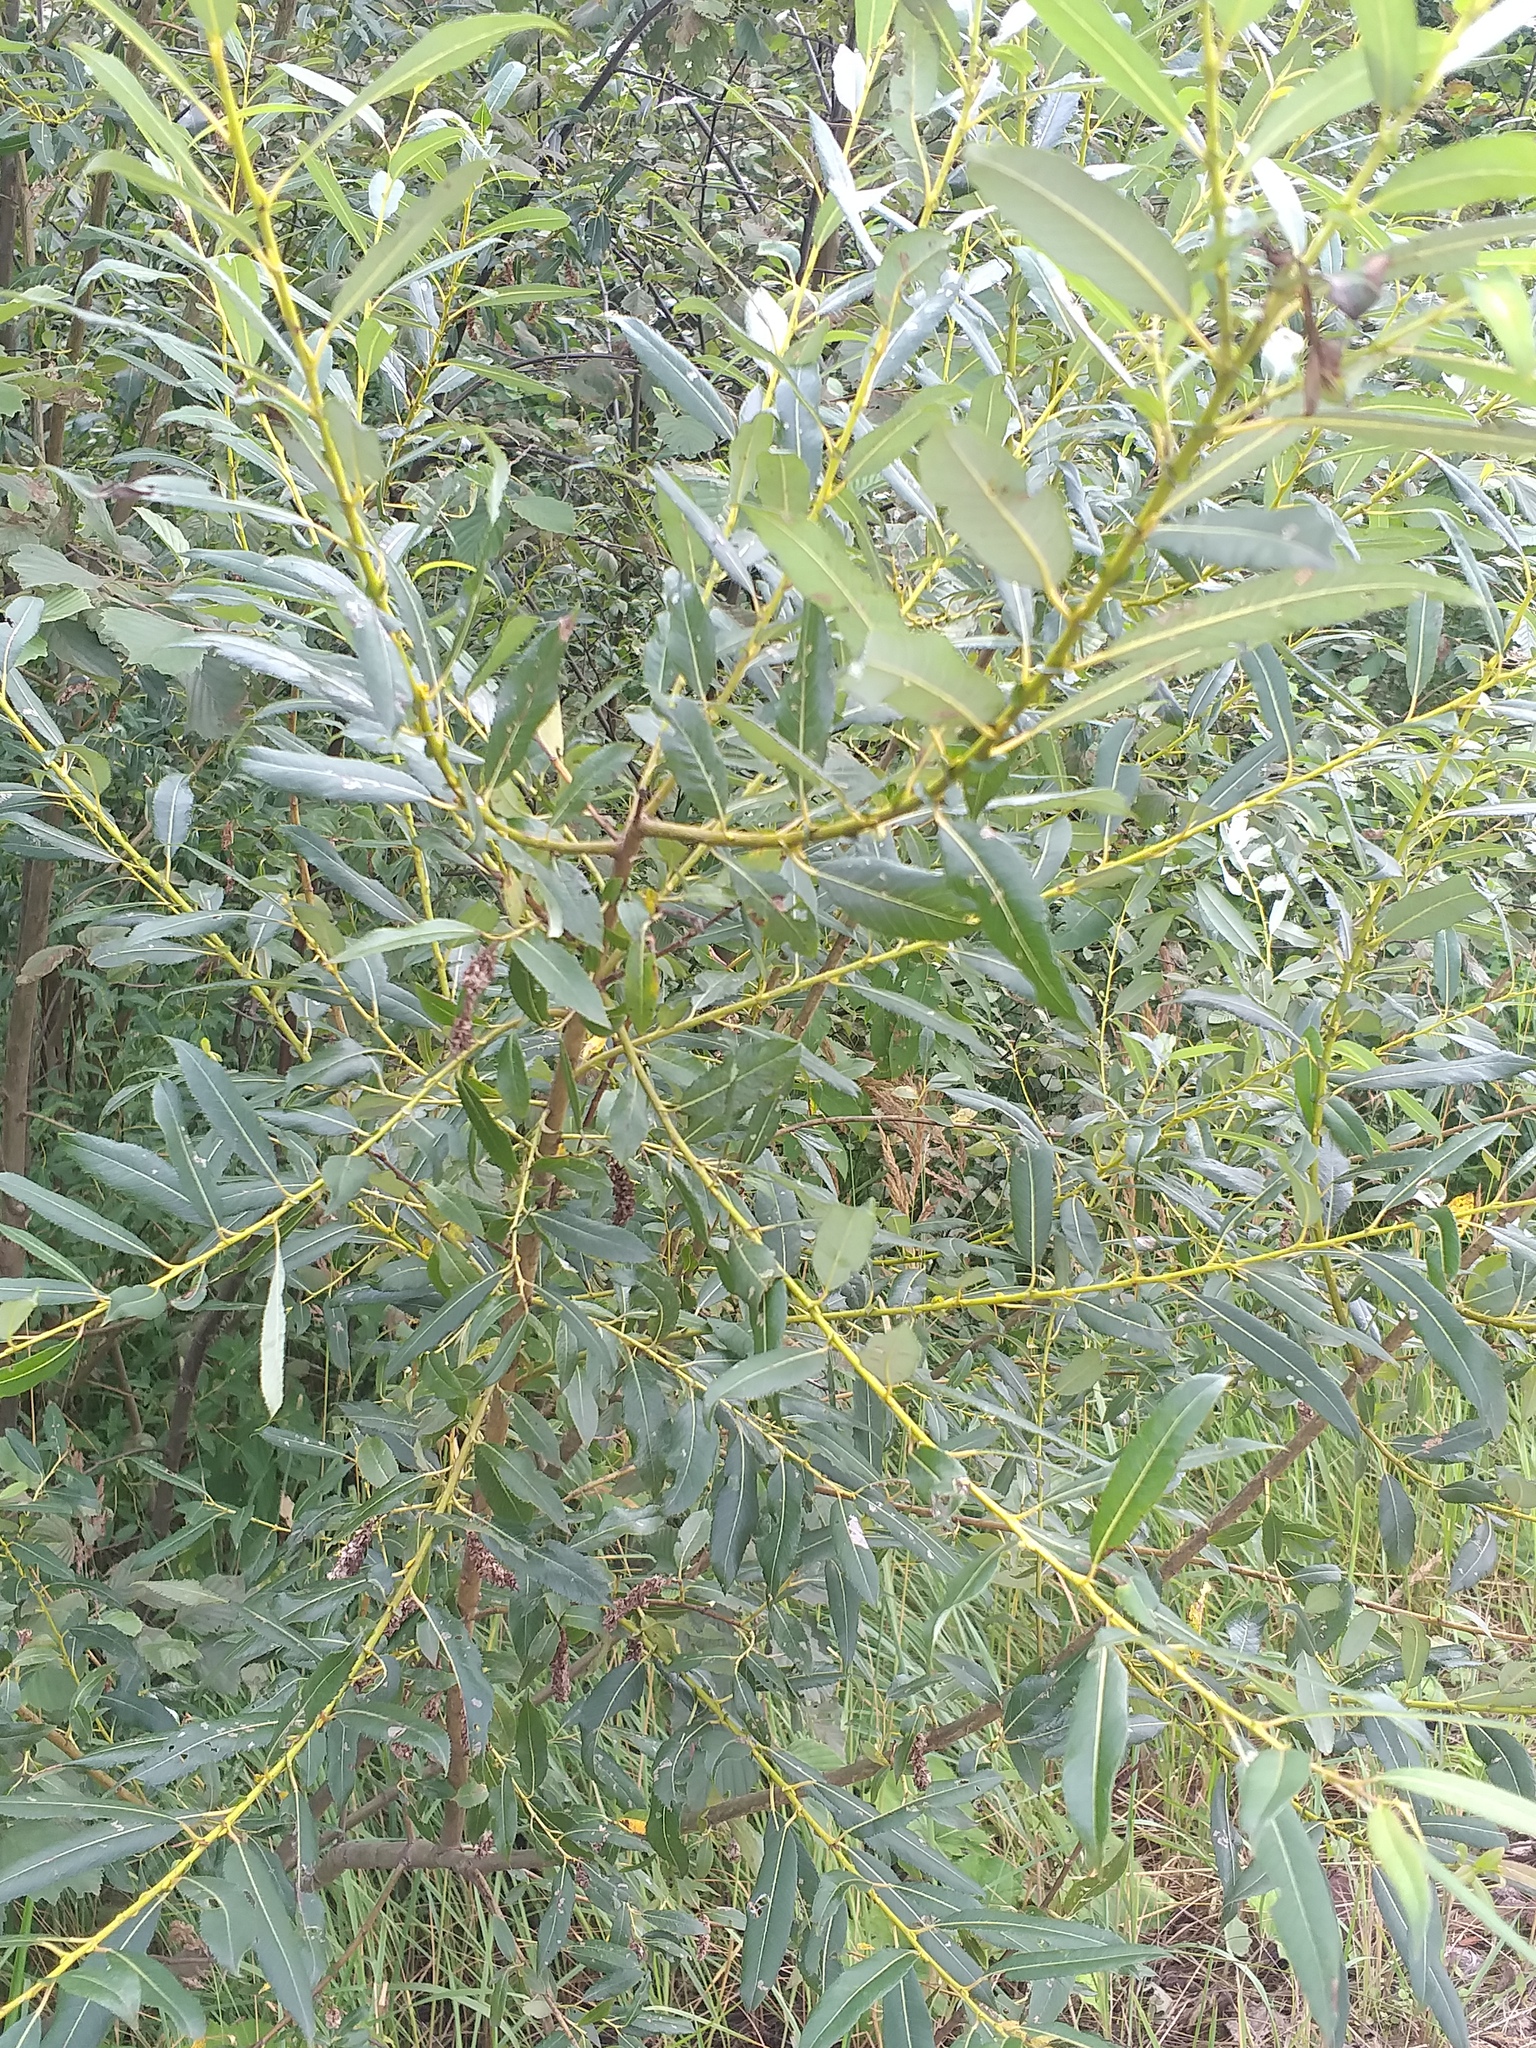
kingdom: Plantae
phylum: Tracheophyta
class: Magnoliopsida
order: Malpighiales
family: Salicaceae
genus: Salix
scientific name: Salix triandra
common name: Almond willow
